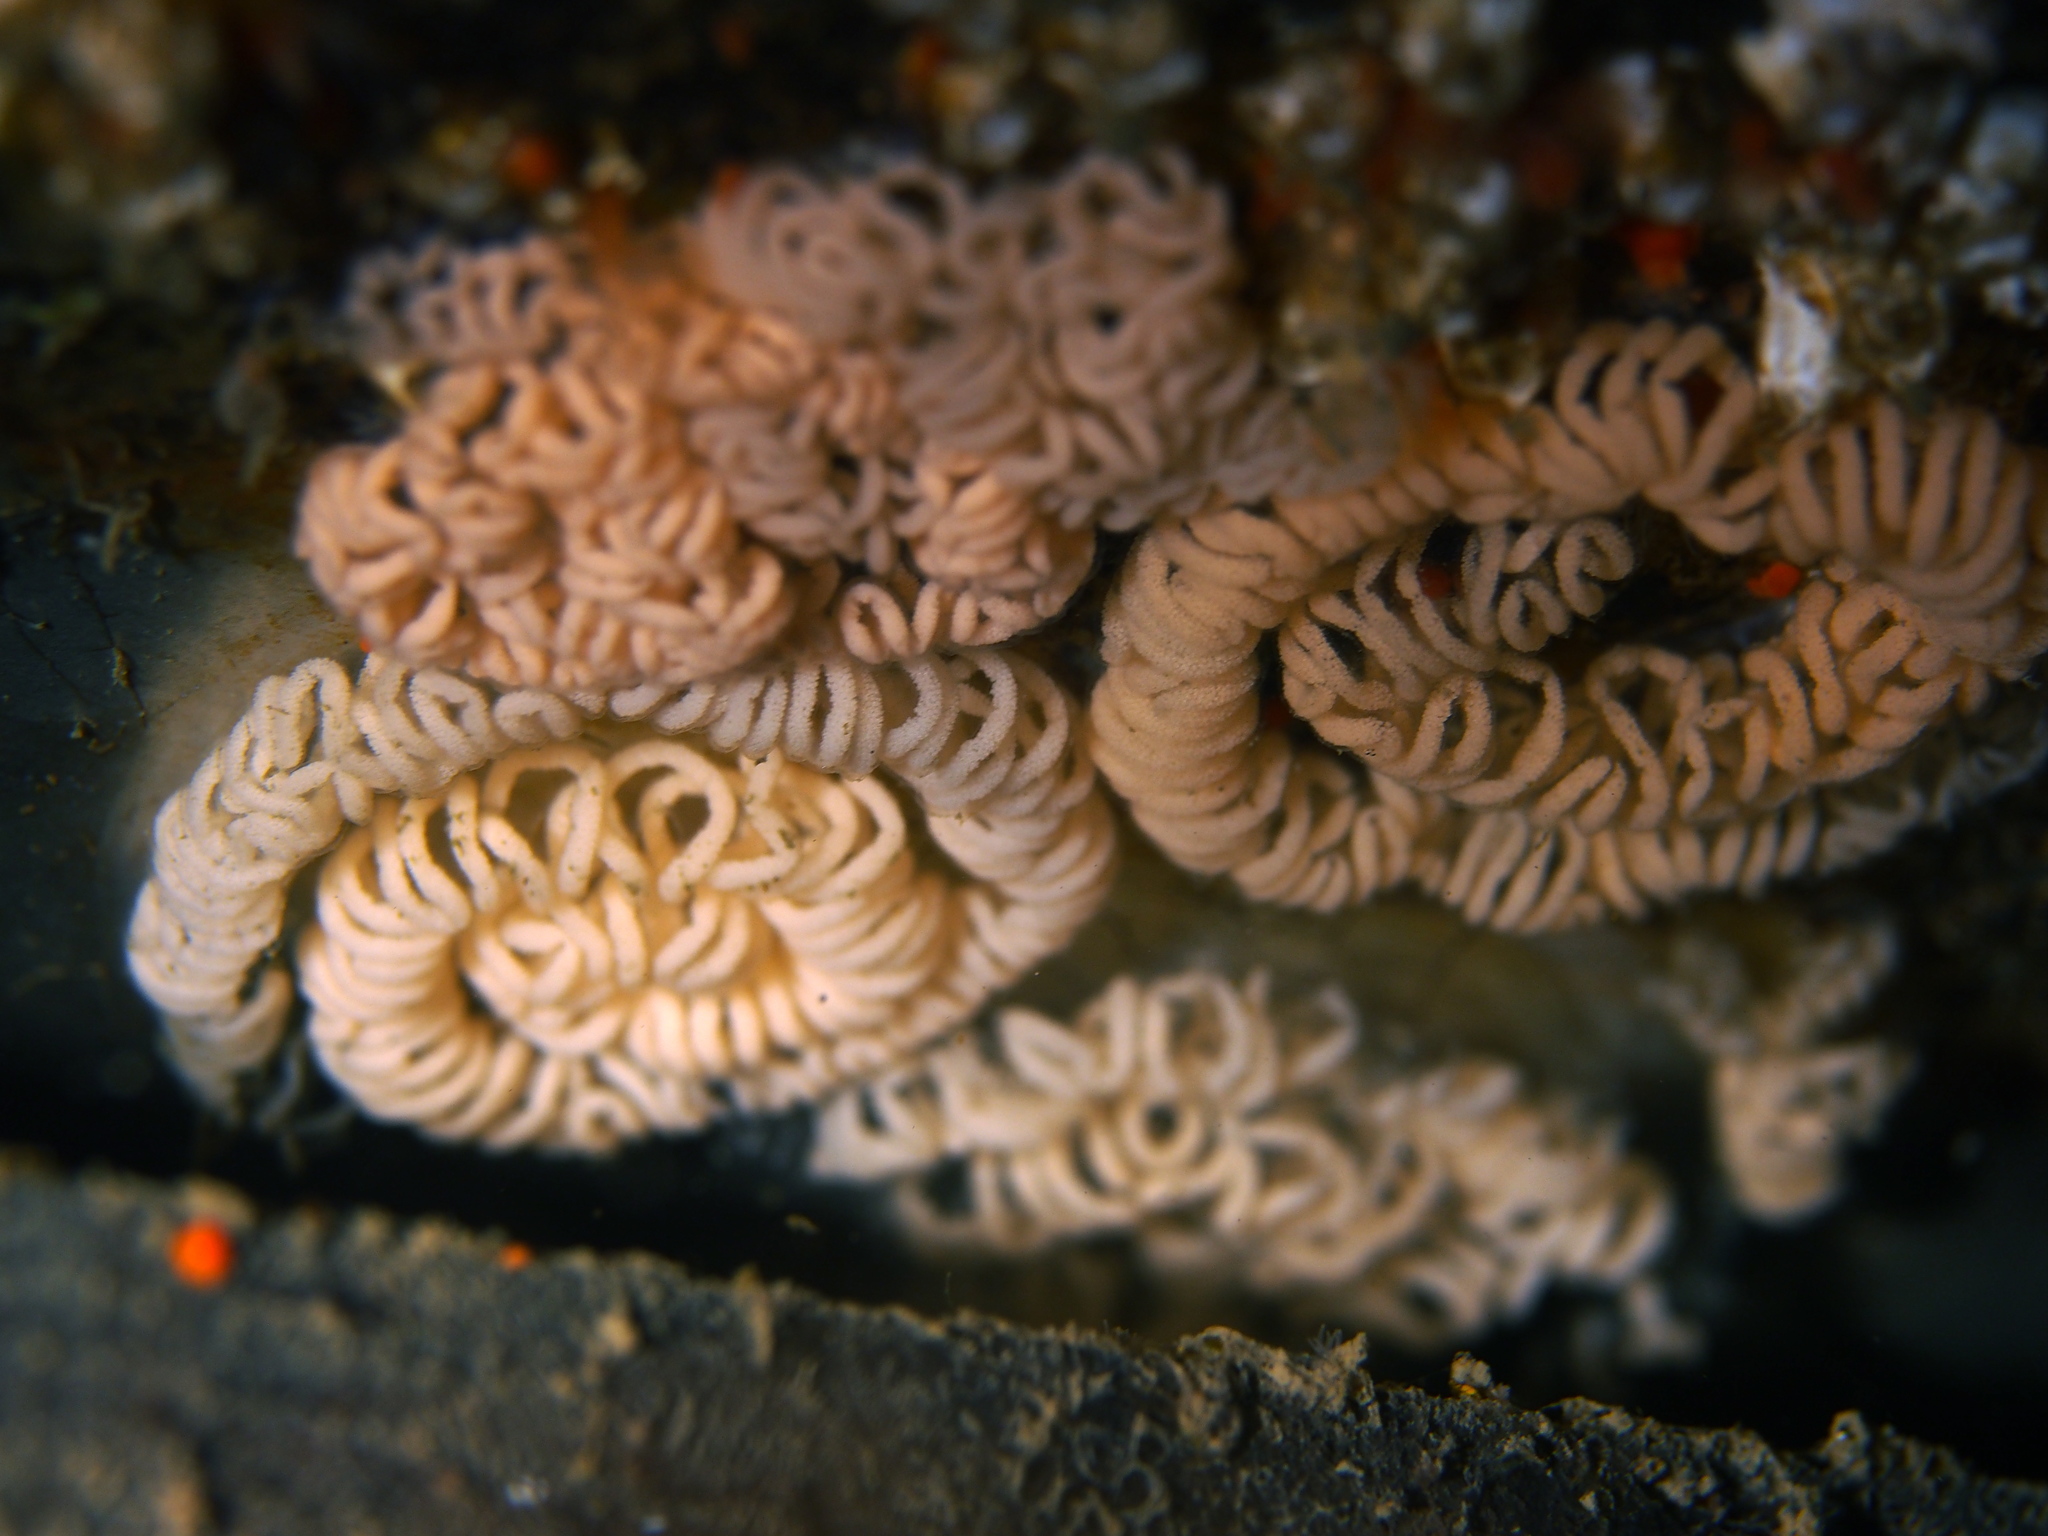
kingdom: Animalia
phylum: Mollusca
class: Gastropoda
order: Nudibranchia
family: Aeolidiidae
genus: Aeolidia
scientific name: Aeolidia papillosa
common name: Common grey sea slug
